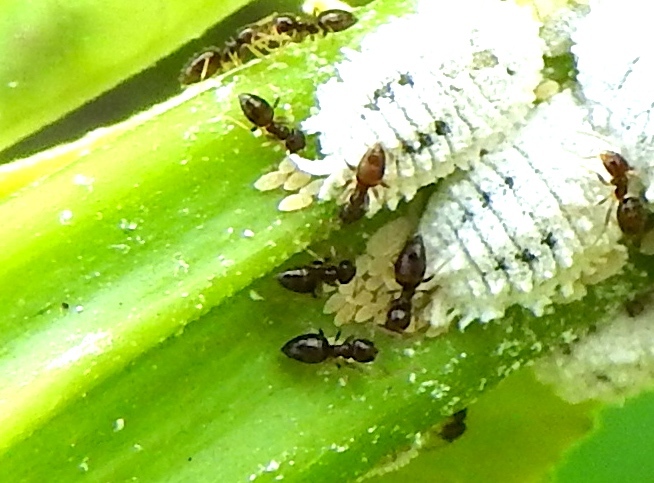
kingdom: Animalia
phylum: Arthropoda
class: Insecta
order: Hymenoptera
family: Formicidae
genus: Brachymyrmex
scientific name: Brachymyrmex
